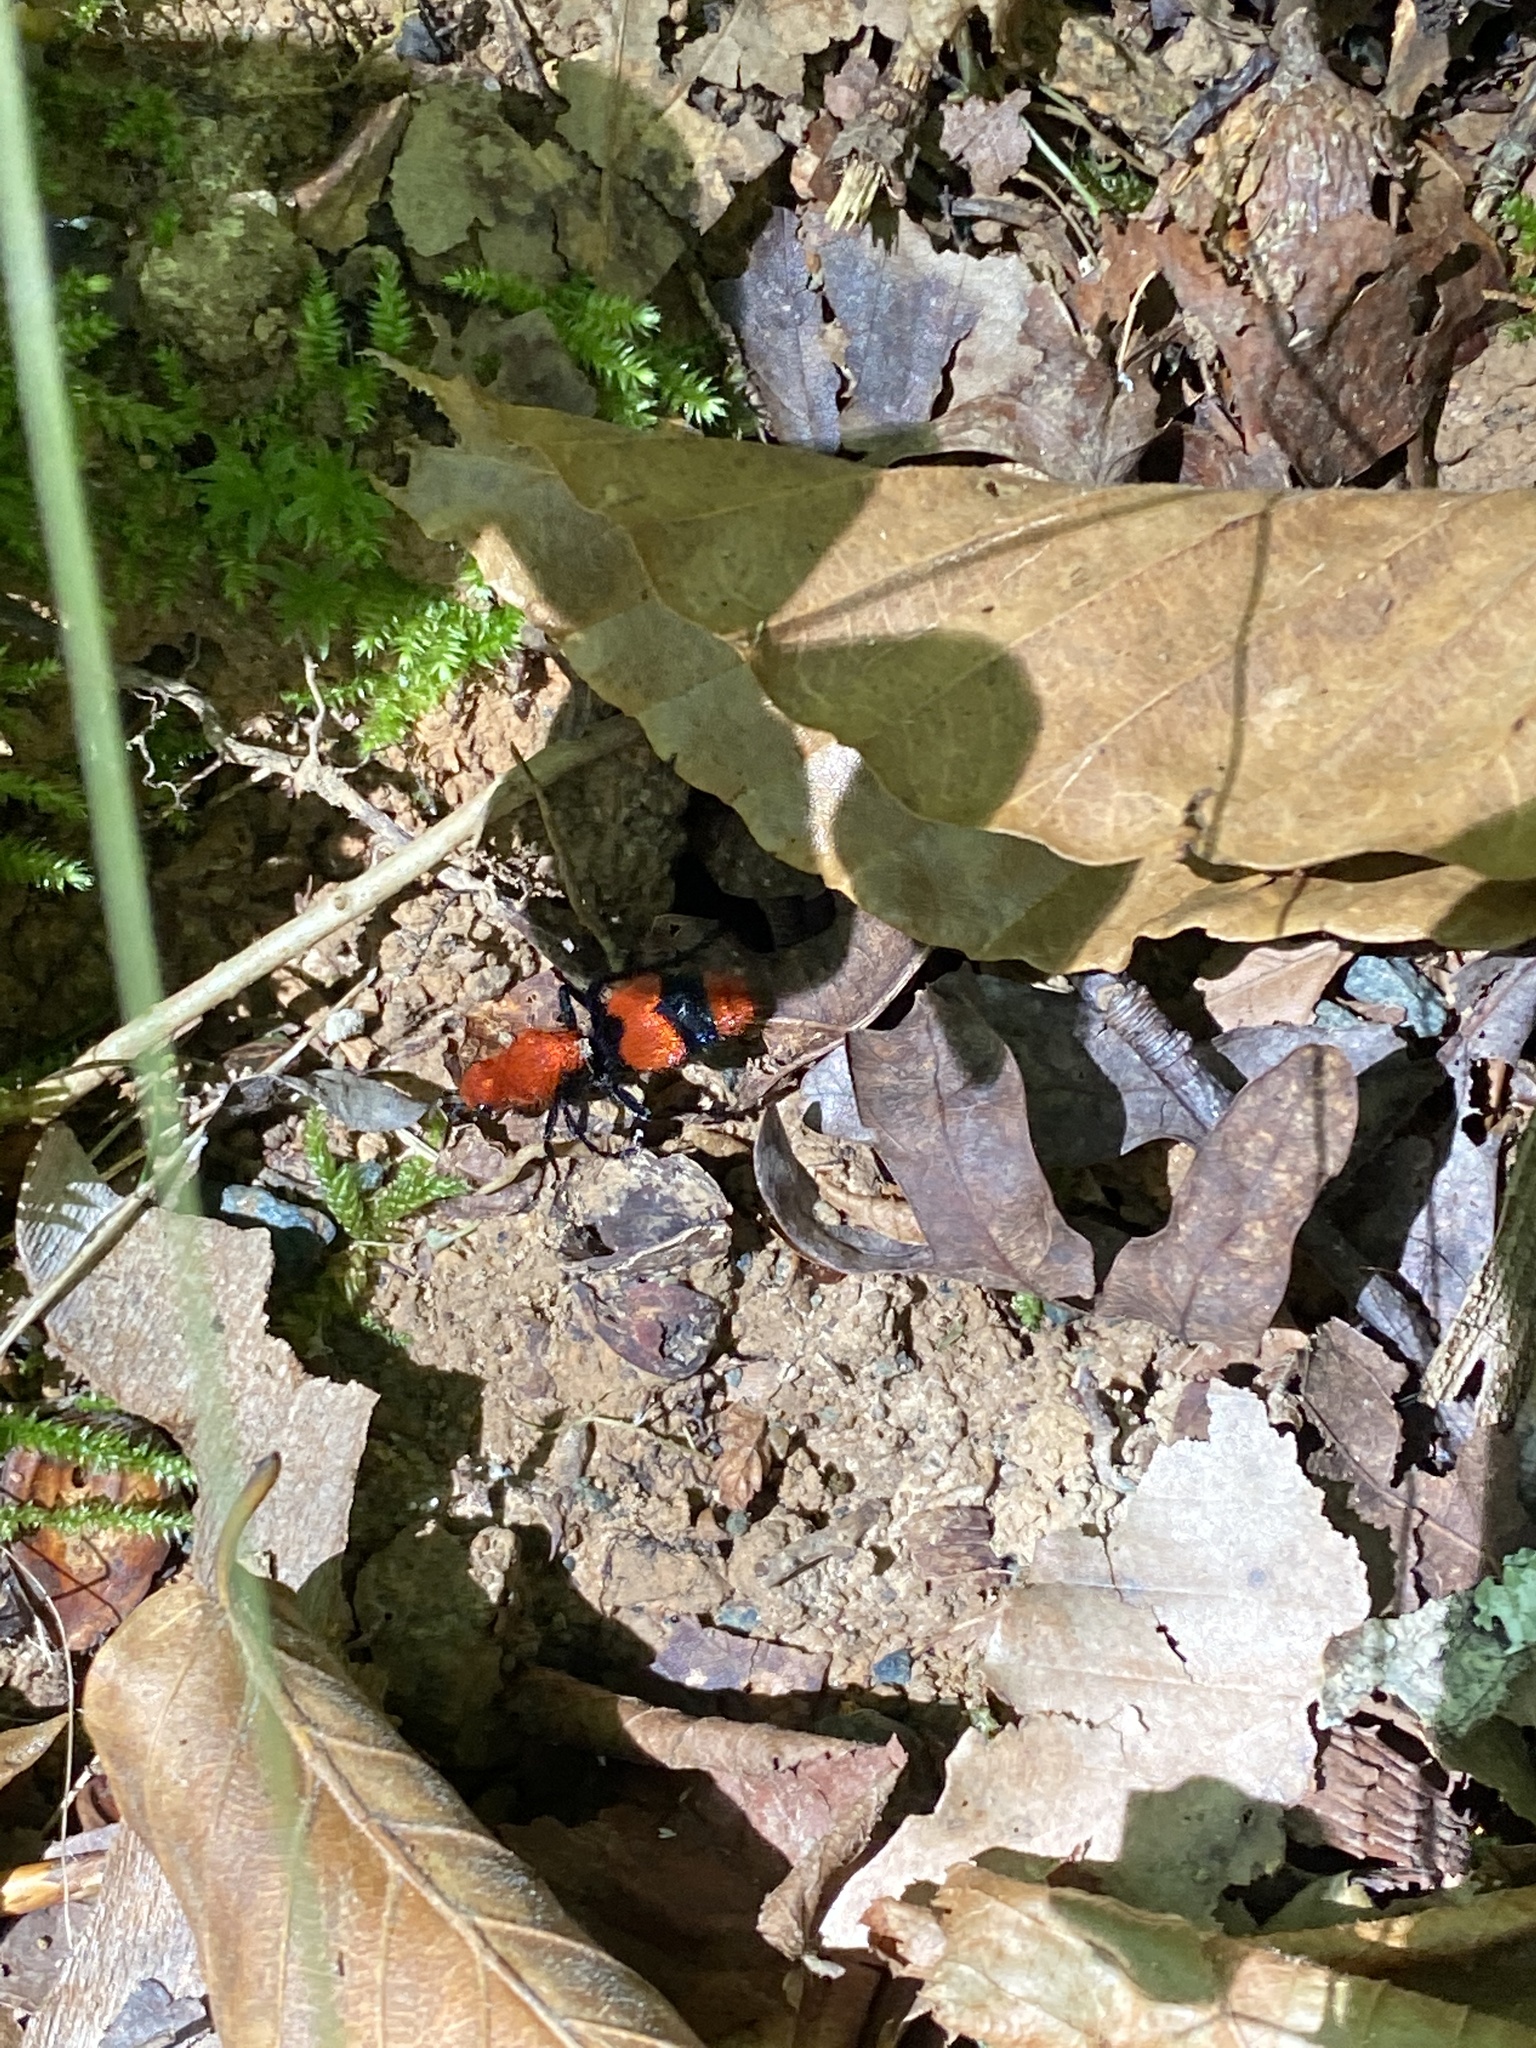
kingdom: Animalia
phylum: Arthropoda
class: Insecta
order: Hymenoptera
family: Mutillidae
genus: Dasymutilla
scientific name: Dasymutilla occidentalis
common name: Common eastern velvet ant
